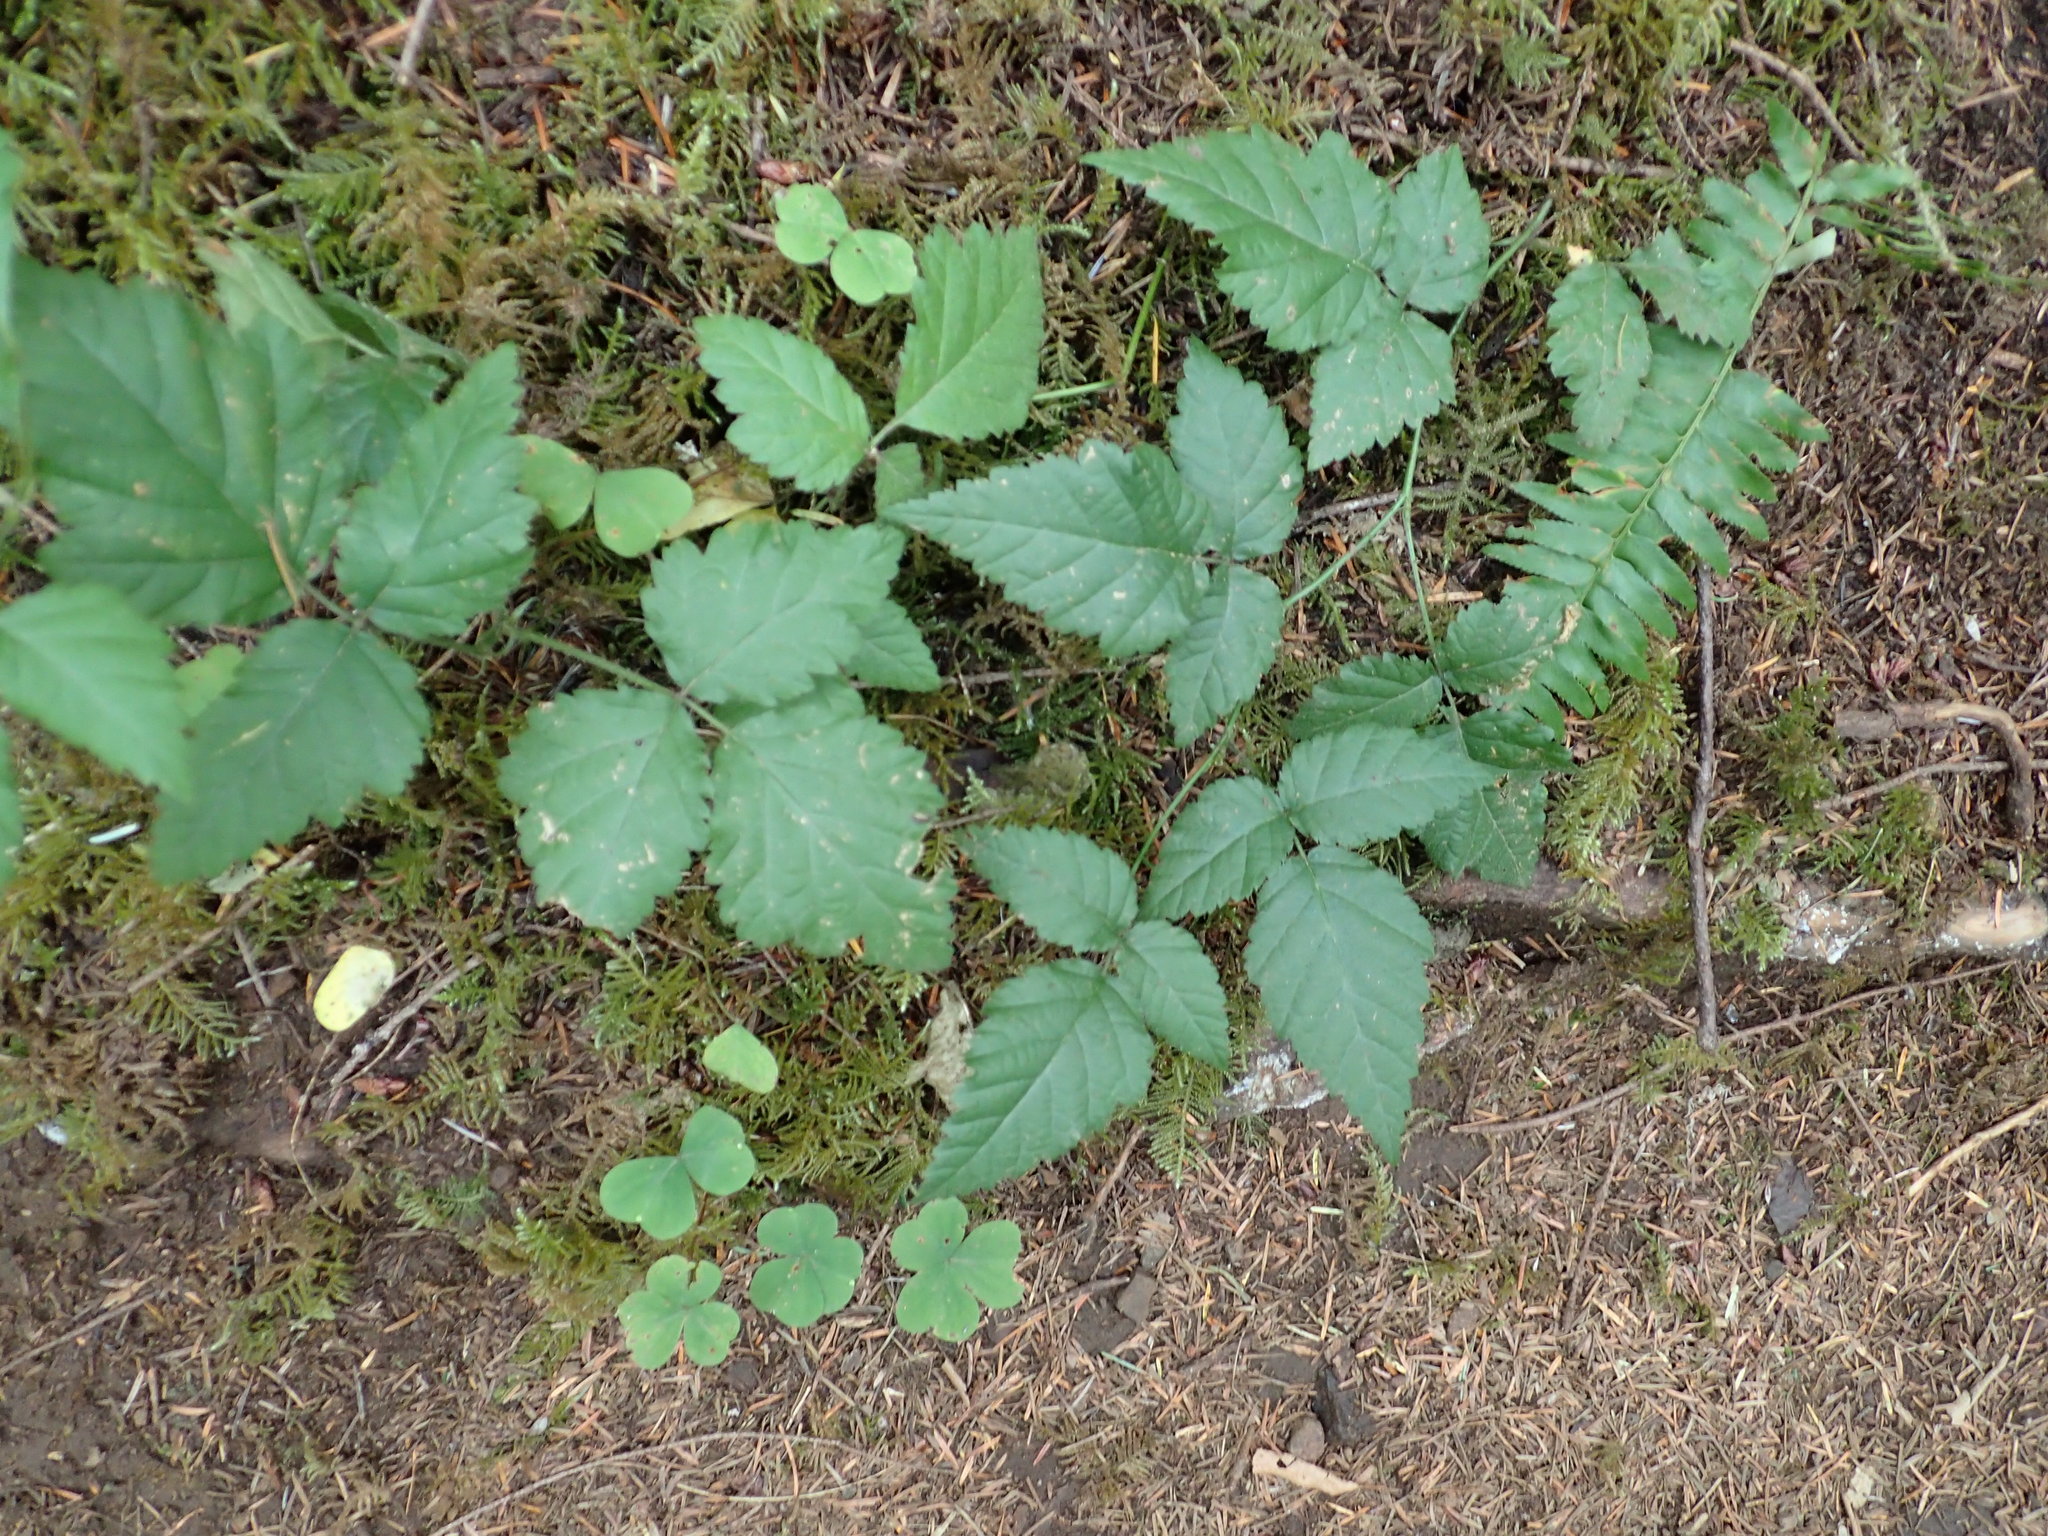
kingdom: Plantae
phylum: Tracheophyta
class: Magnoliopsida
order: Rosales
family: Rosaceae
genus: Rubus
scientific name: Rubus ursinus
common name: Pacific blackberry
